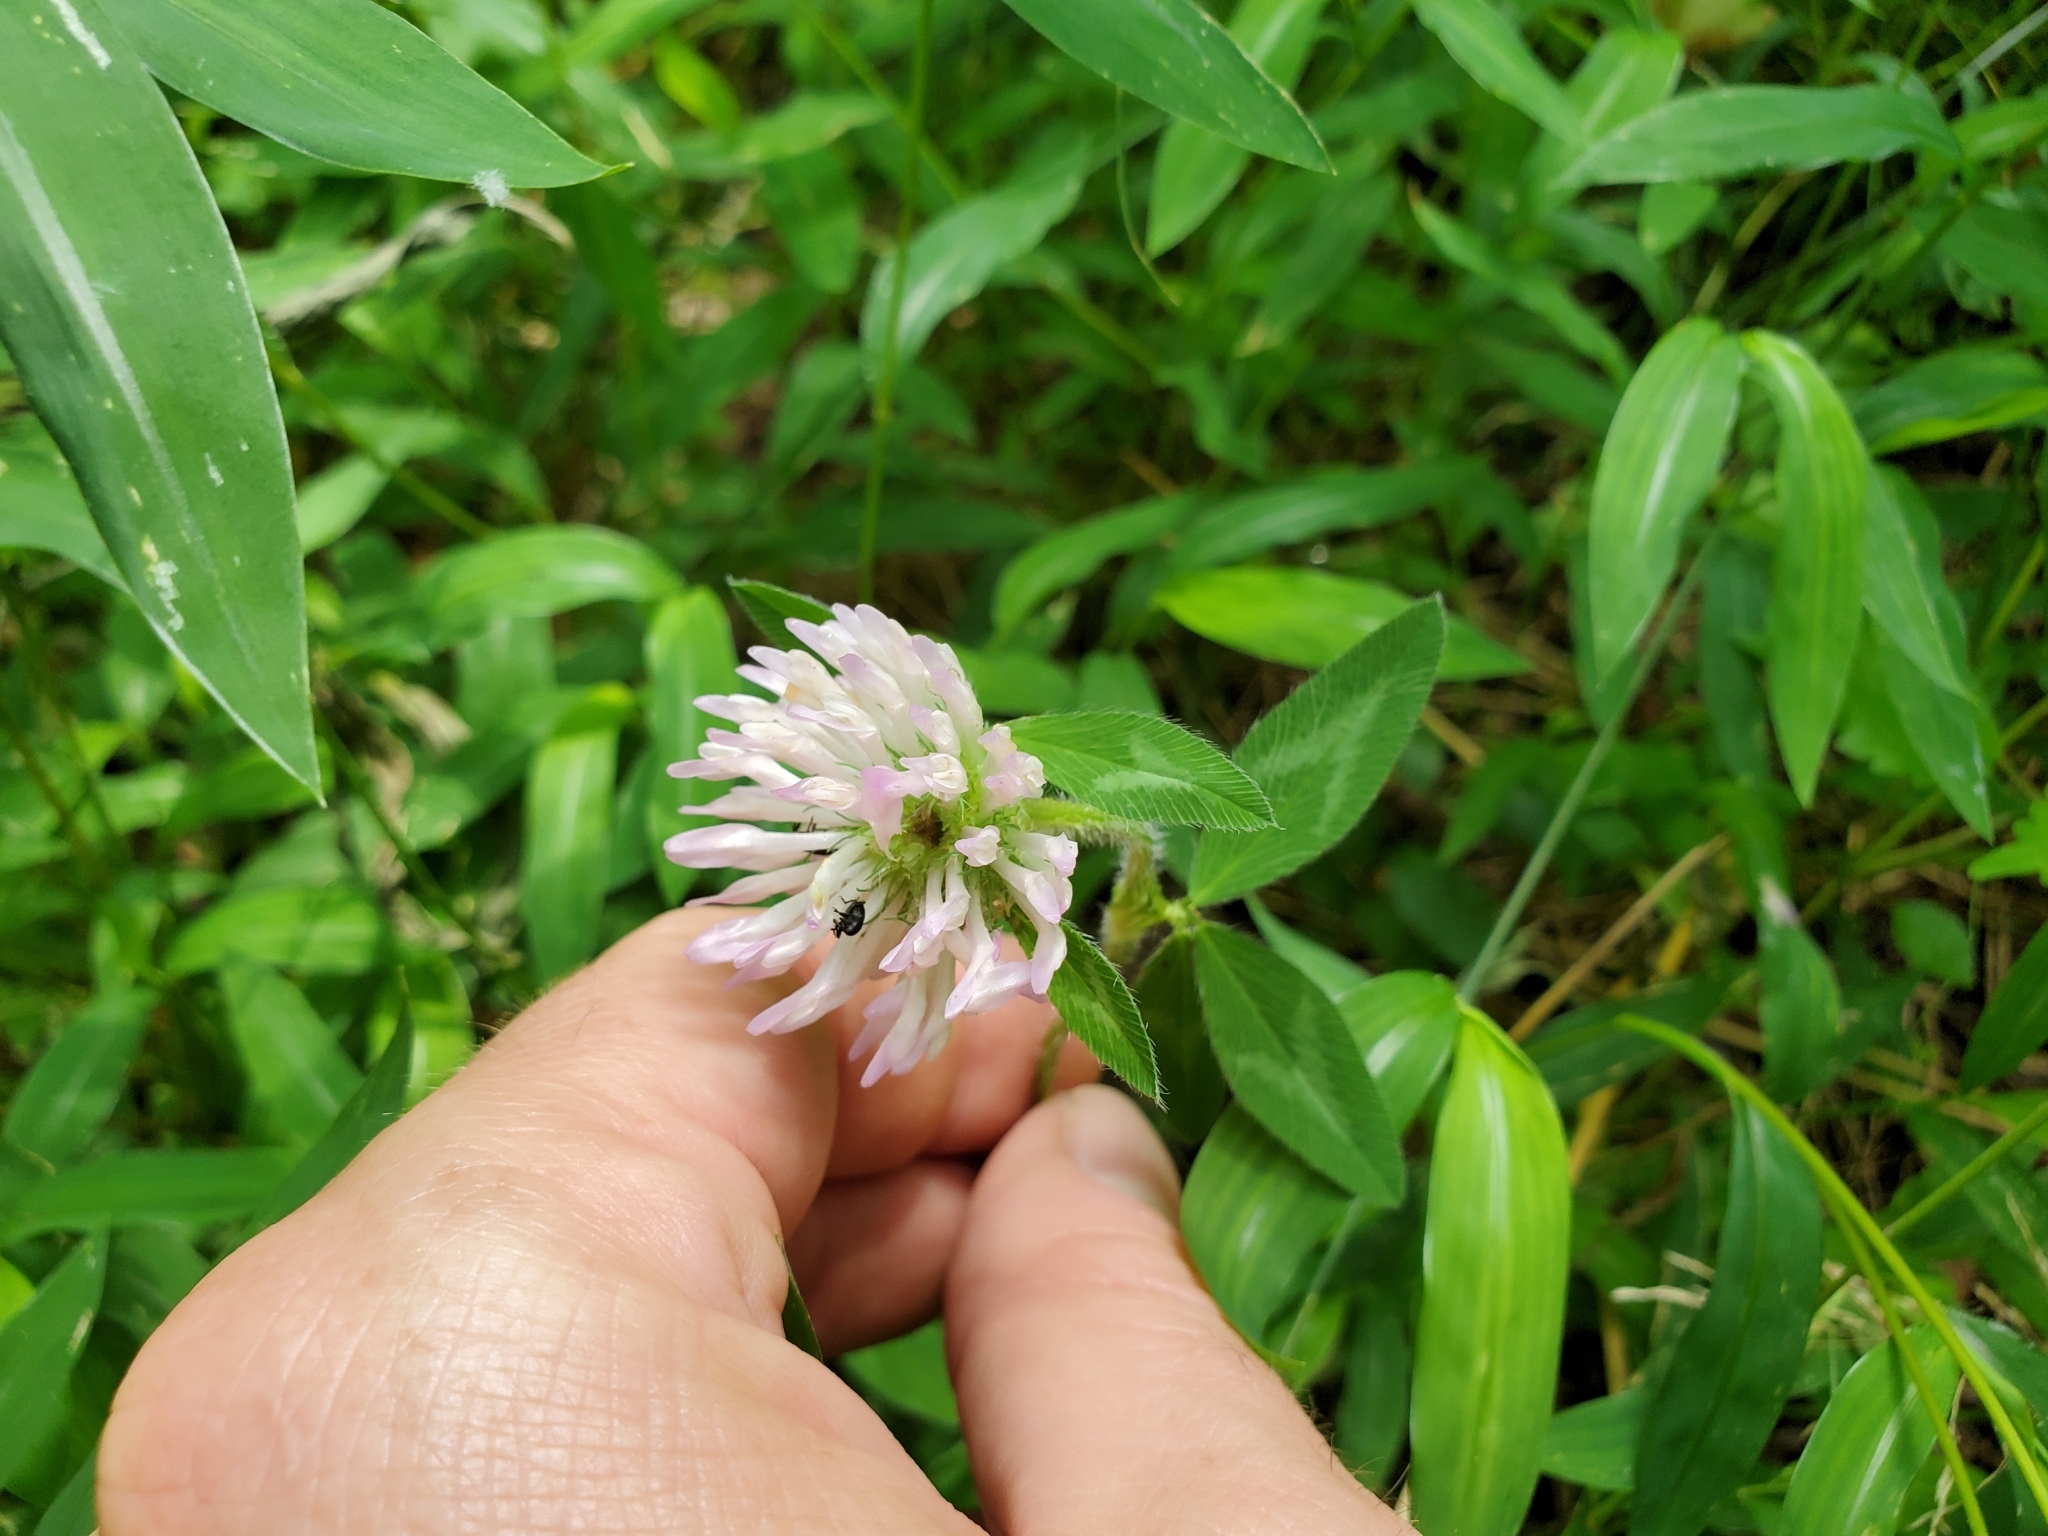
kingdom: Plantae
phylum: Tracheophyta
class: Magnoliopsida
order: Fabales
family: Fabaceae
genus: Trifolium
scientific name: Trifolium pratense
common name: Red clover
